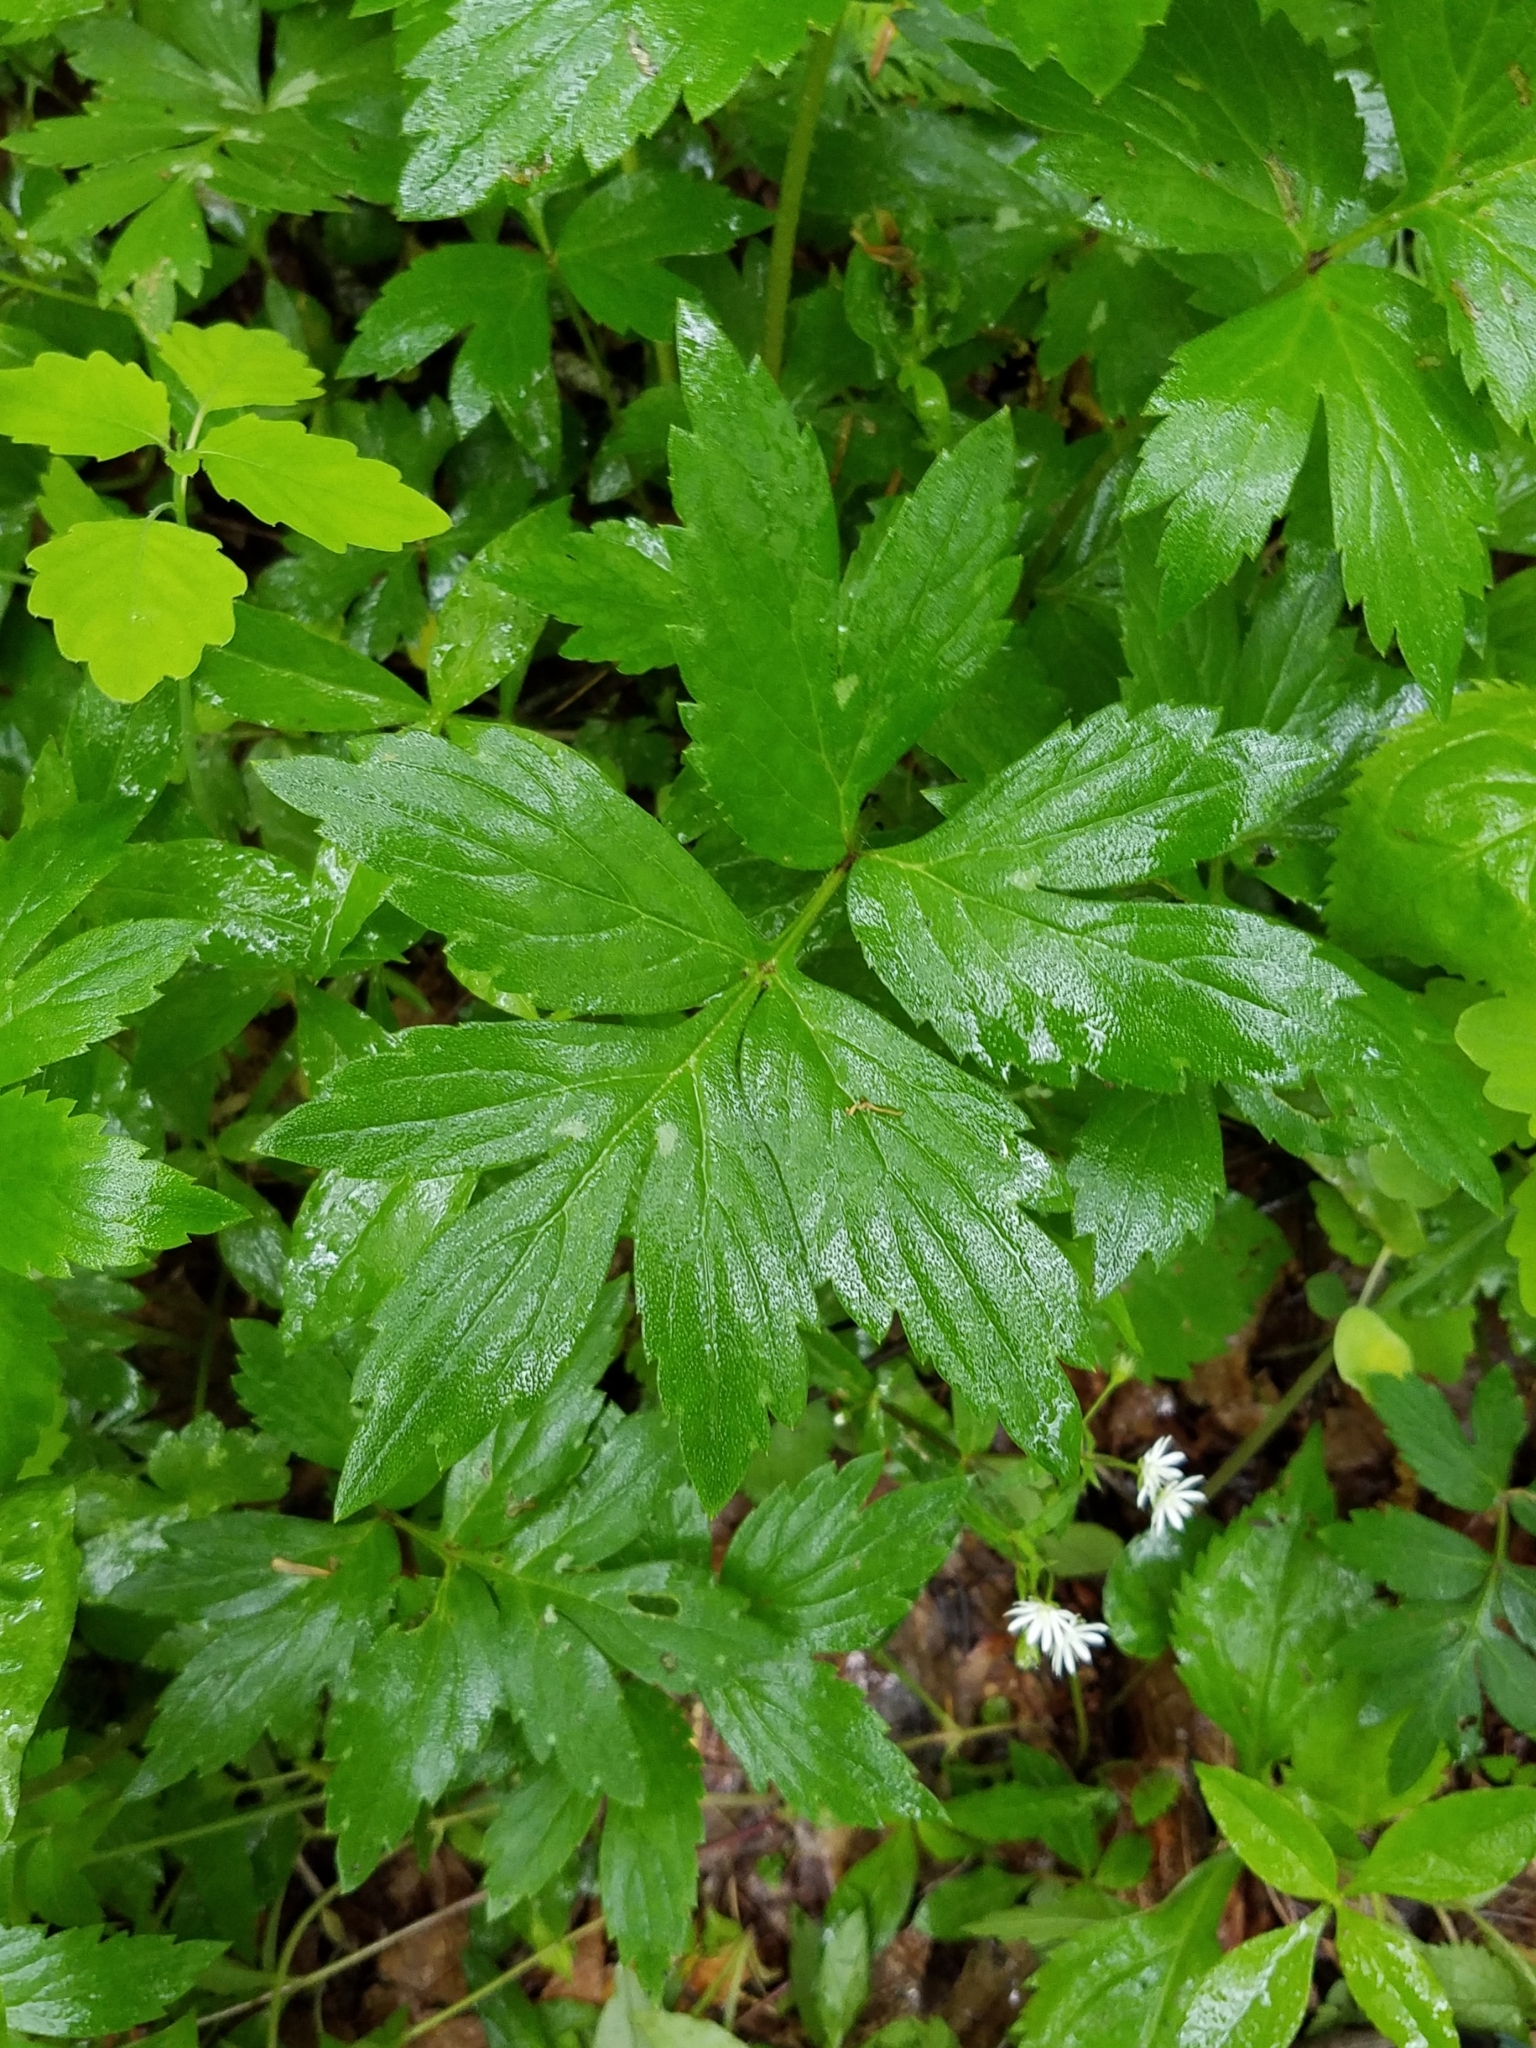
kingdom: Plantae
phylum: Tracheophyta
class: Magnoliopsida
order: Boraginales
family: Hydrophyllaceae
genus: Hydrophyllum
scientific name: Hydrophyllum virginianum
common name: Virginia waterleaf
